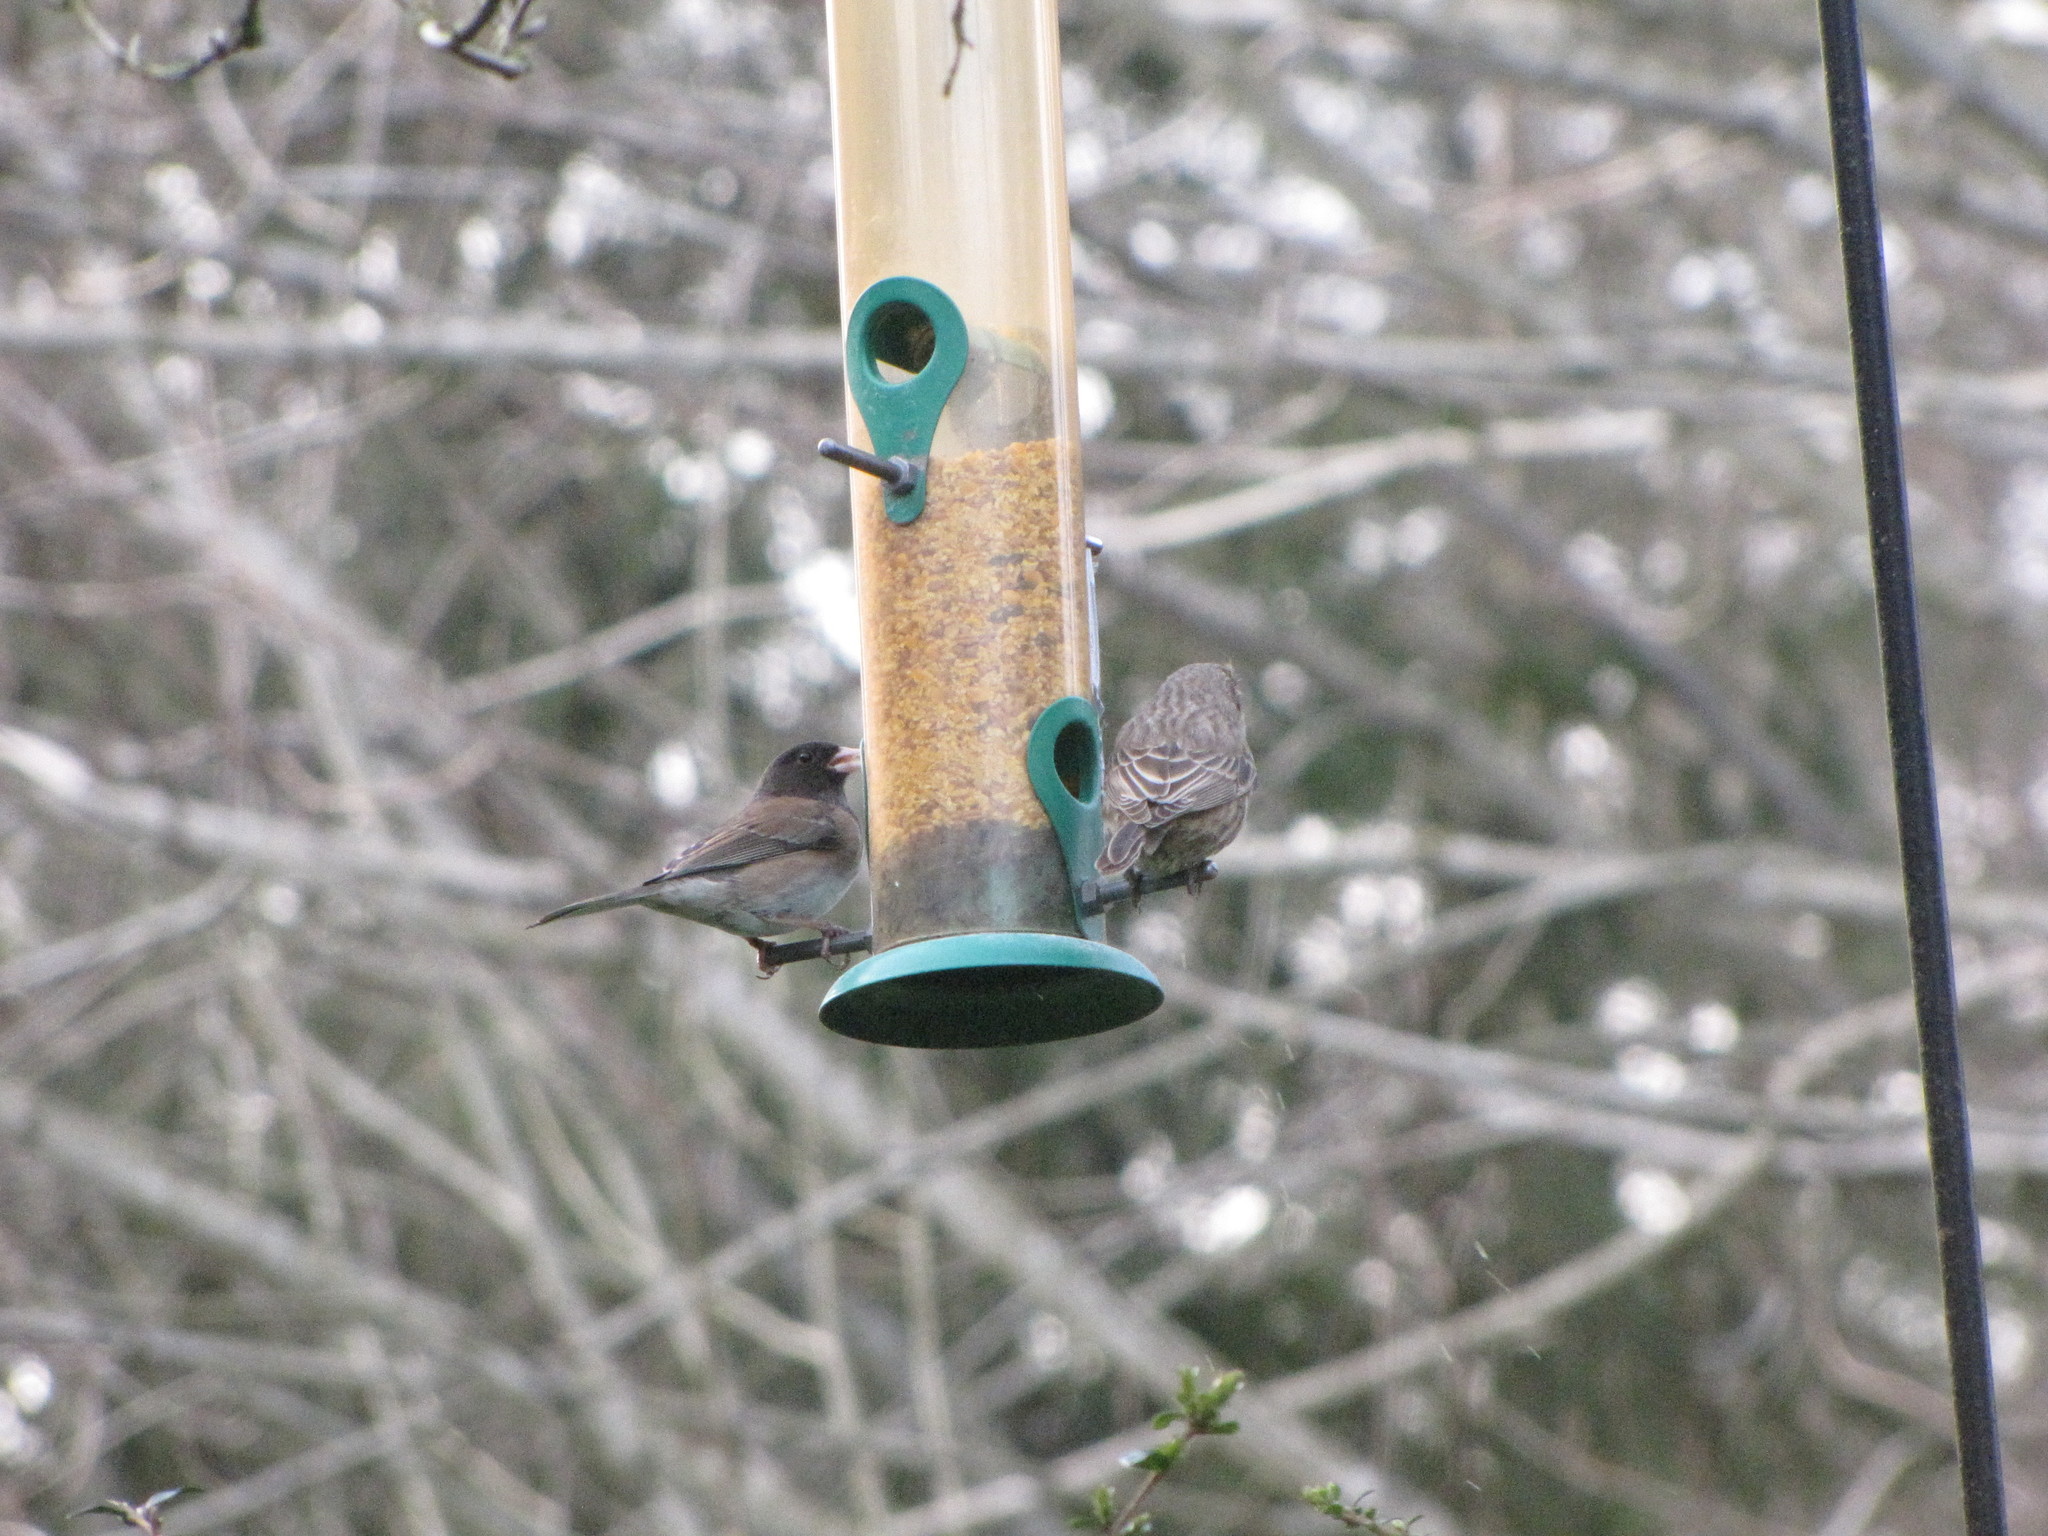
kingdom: Animalia
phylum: Chordata
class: Aves
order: Passeriformes
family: Passerellidae
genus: Junco
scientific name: Junco hyemalis
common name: Dark-eyed junco
